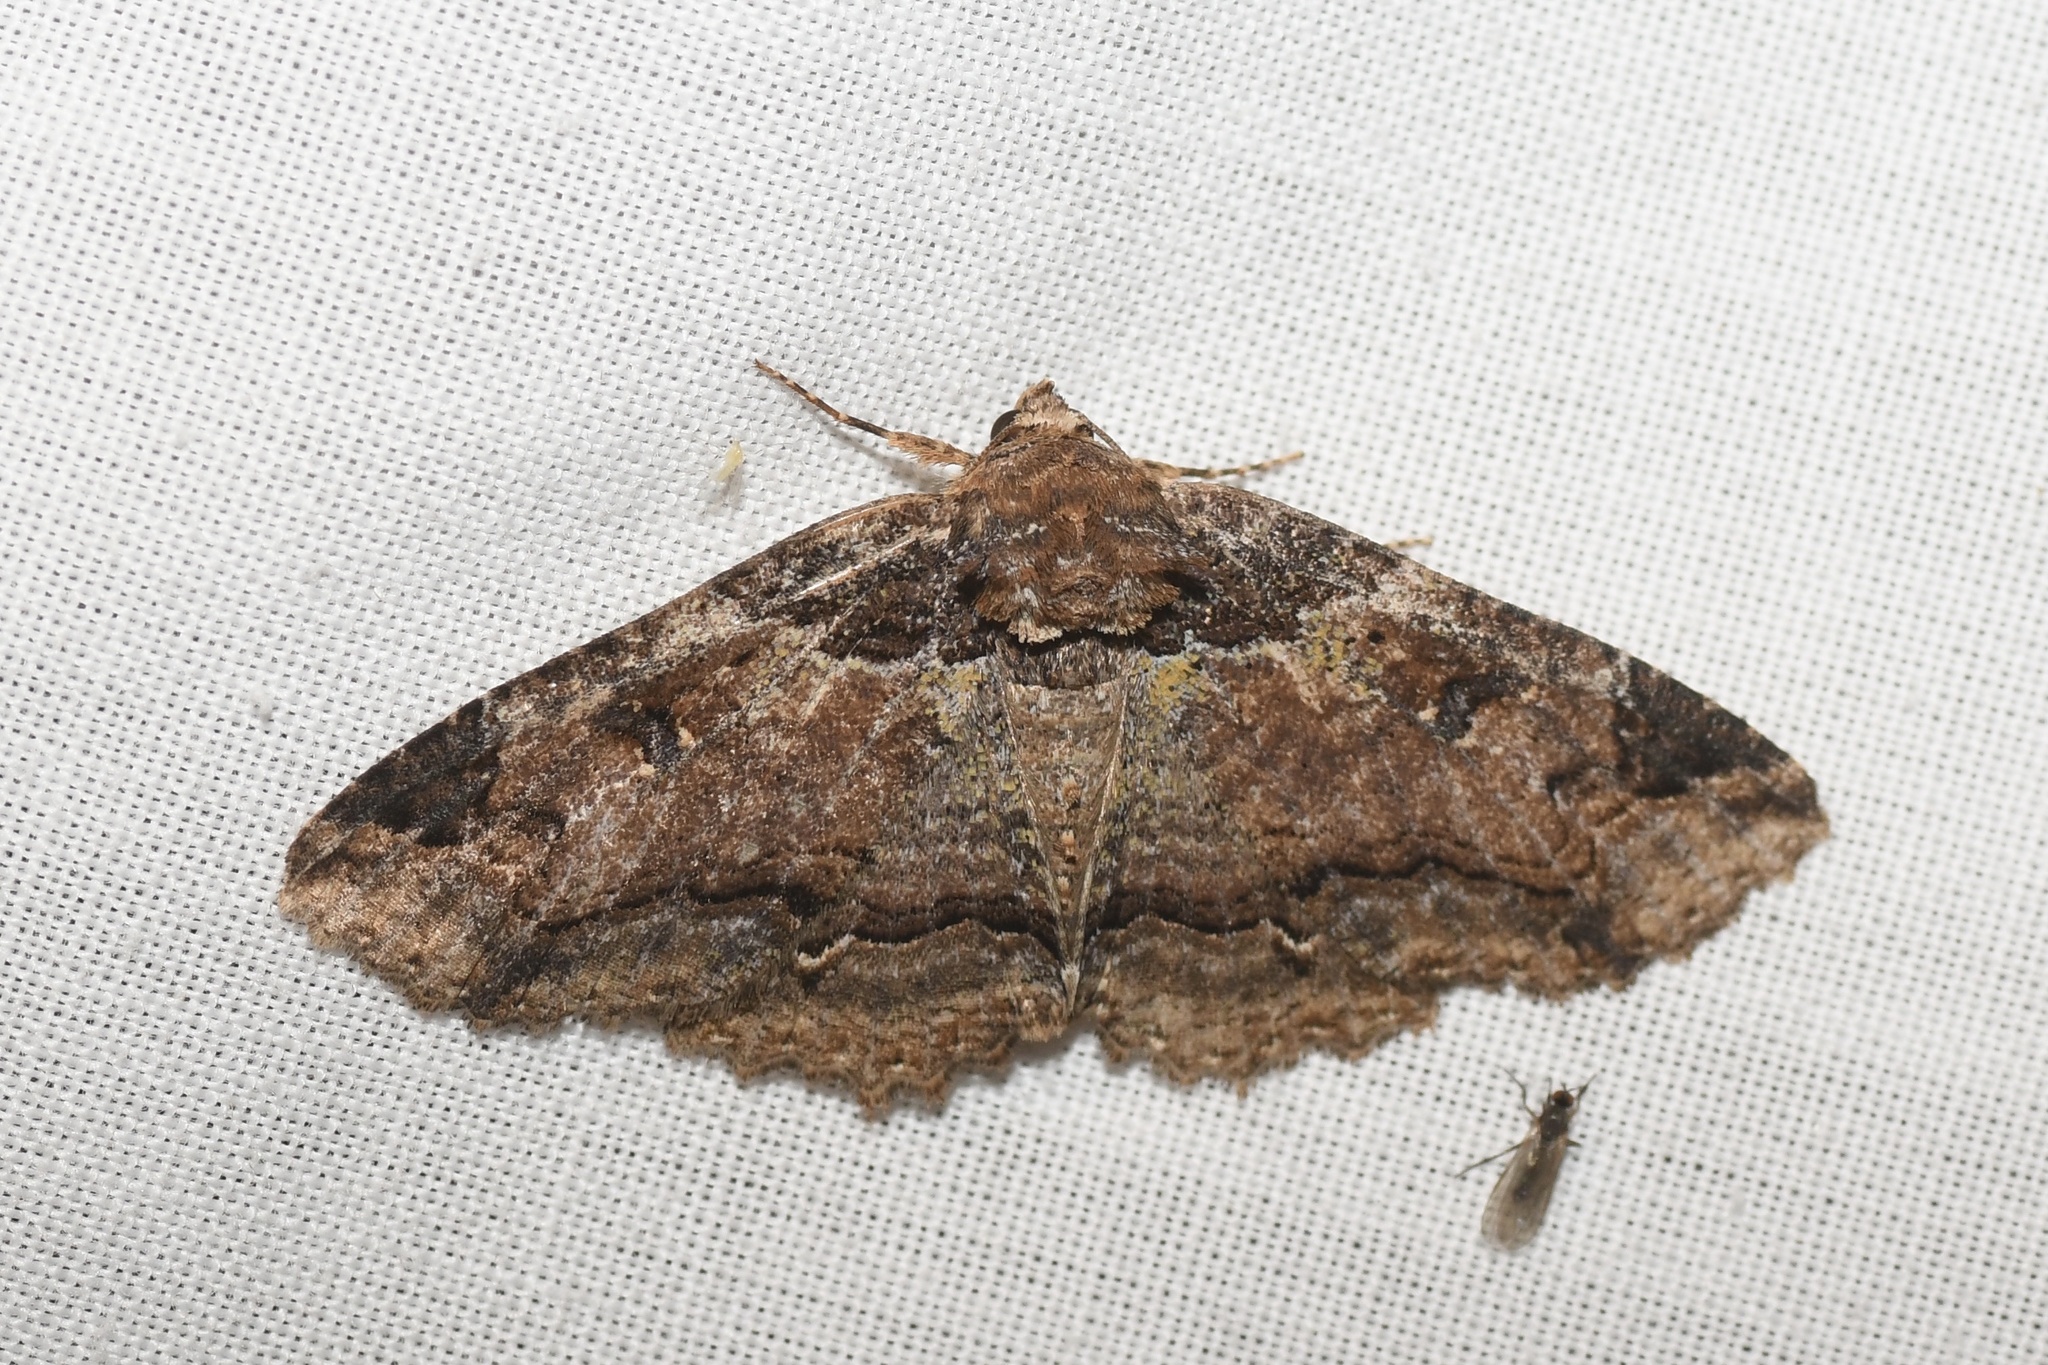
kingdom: Animalia
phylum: Arthropoda
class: Insecta
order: Lepidoptera
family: Erebidae
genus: Zale
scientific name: Zale minerea
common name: Colorful zale moth
